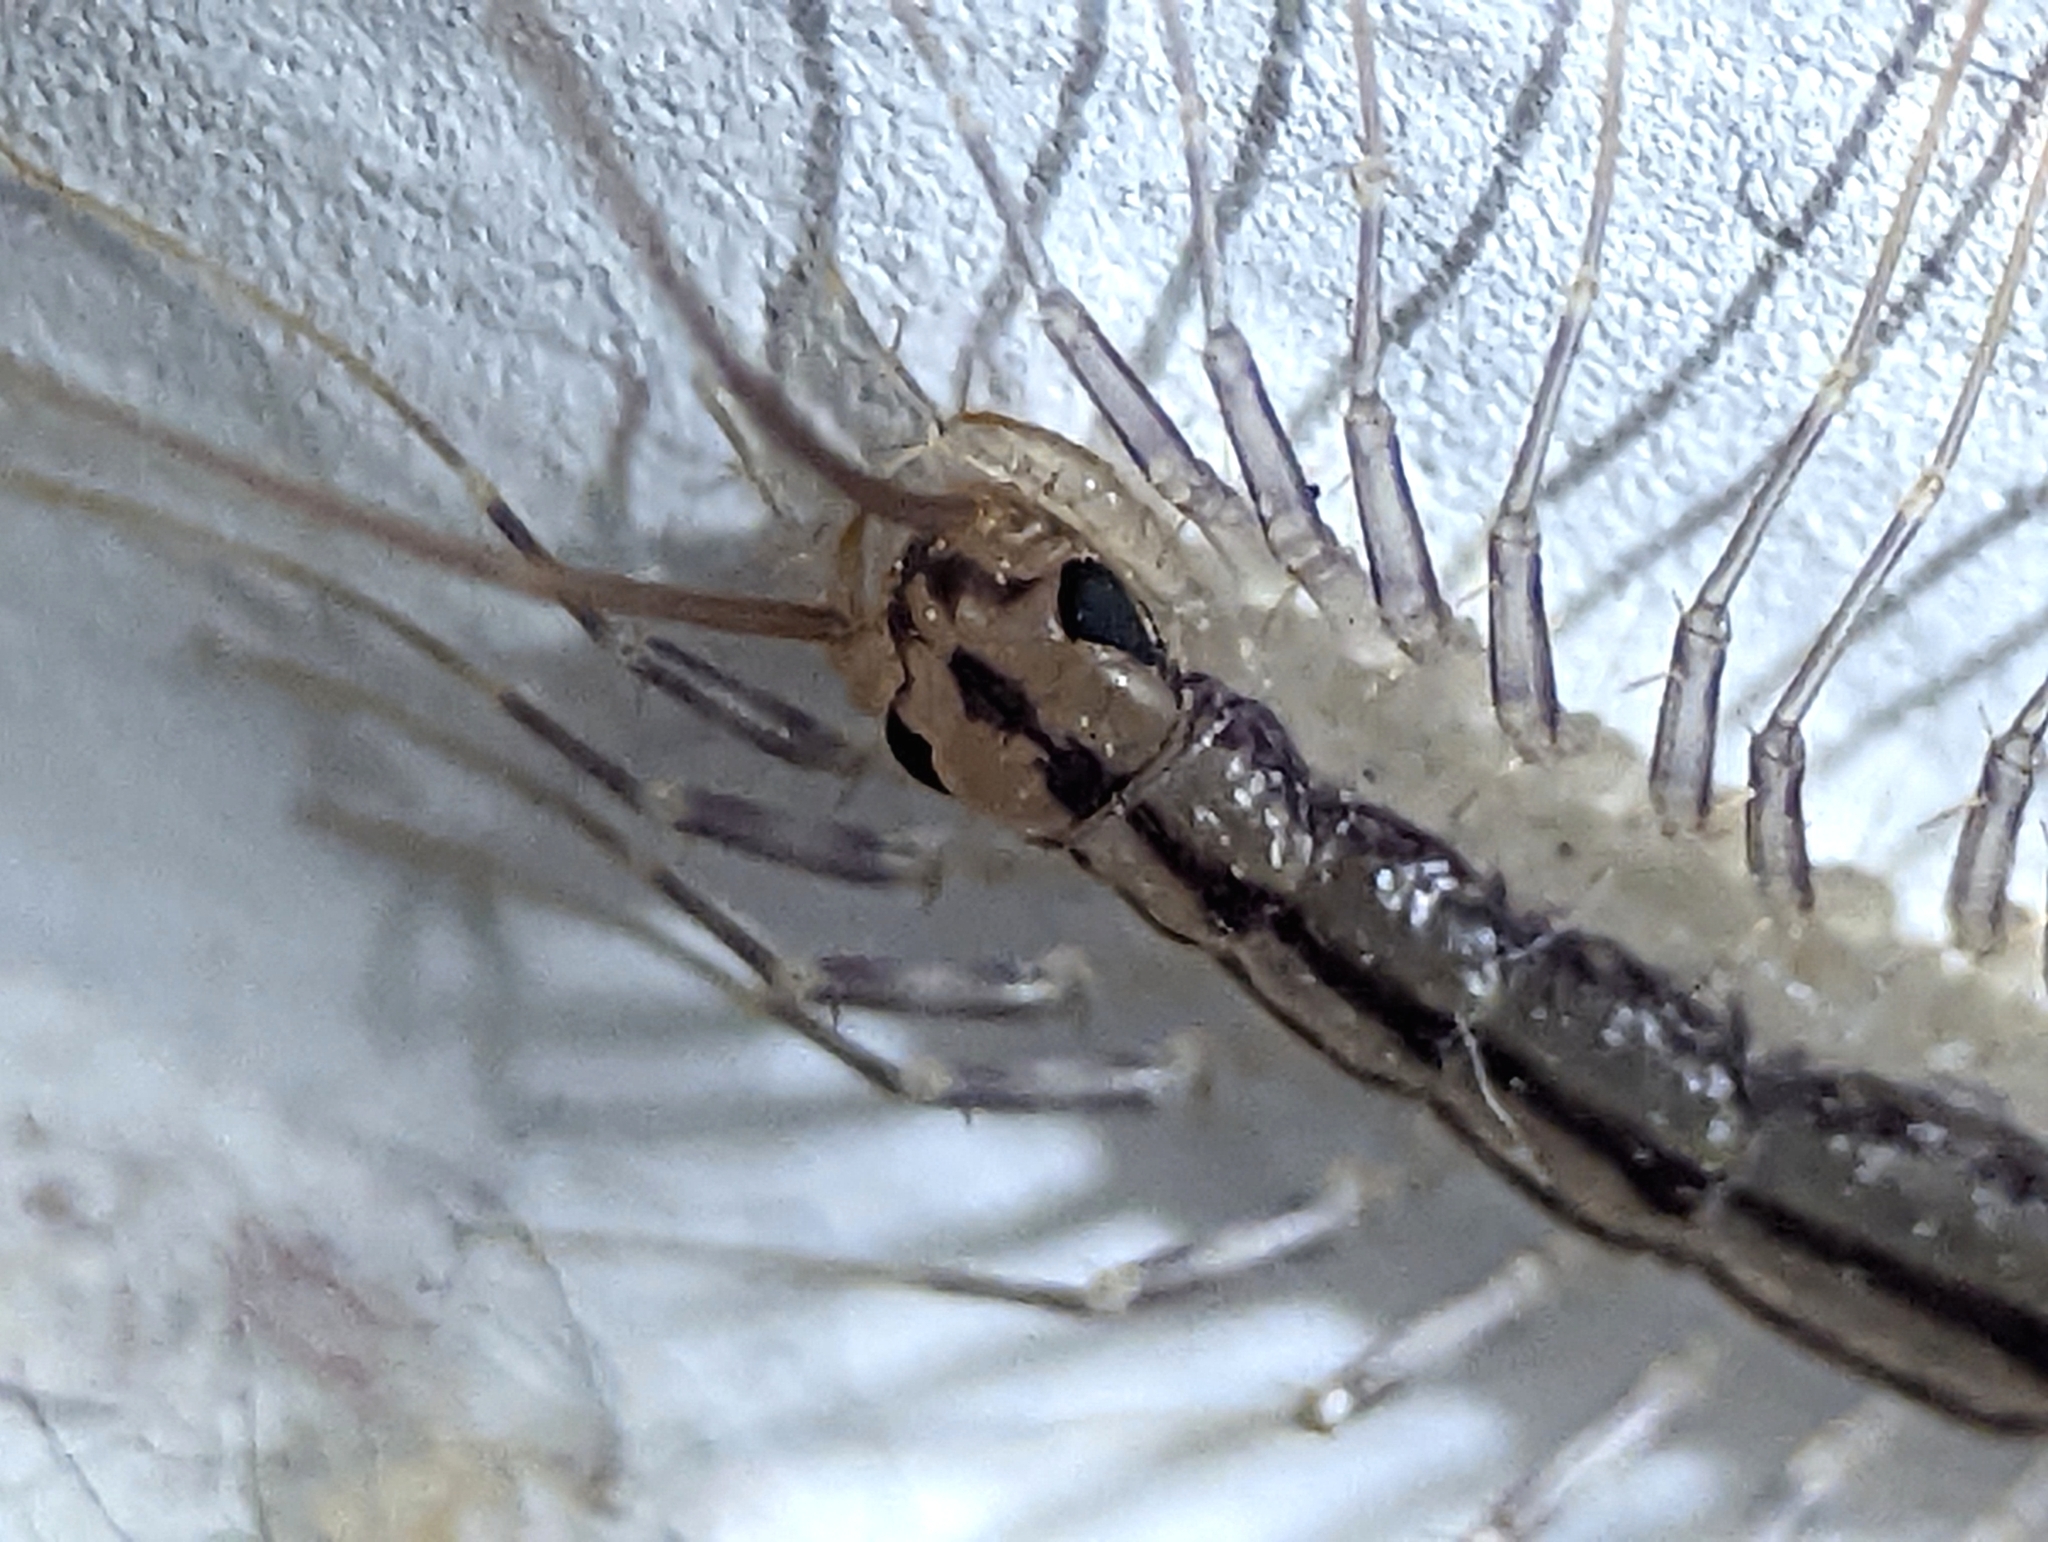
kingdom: Animalia
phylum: Arthropoda
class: Chilopoda
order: Scutigeromorpha
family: Scutigeridae
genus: Scutigera
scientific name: Scutigera coleoptrata
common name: House centipede
